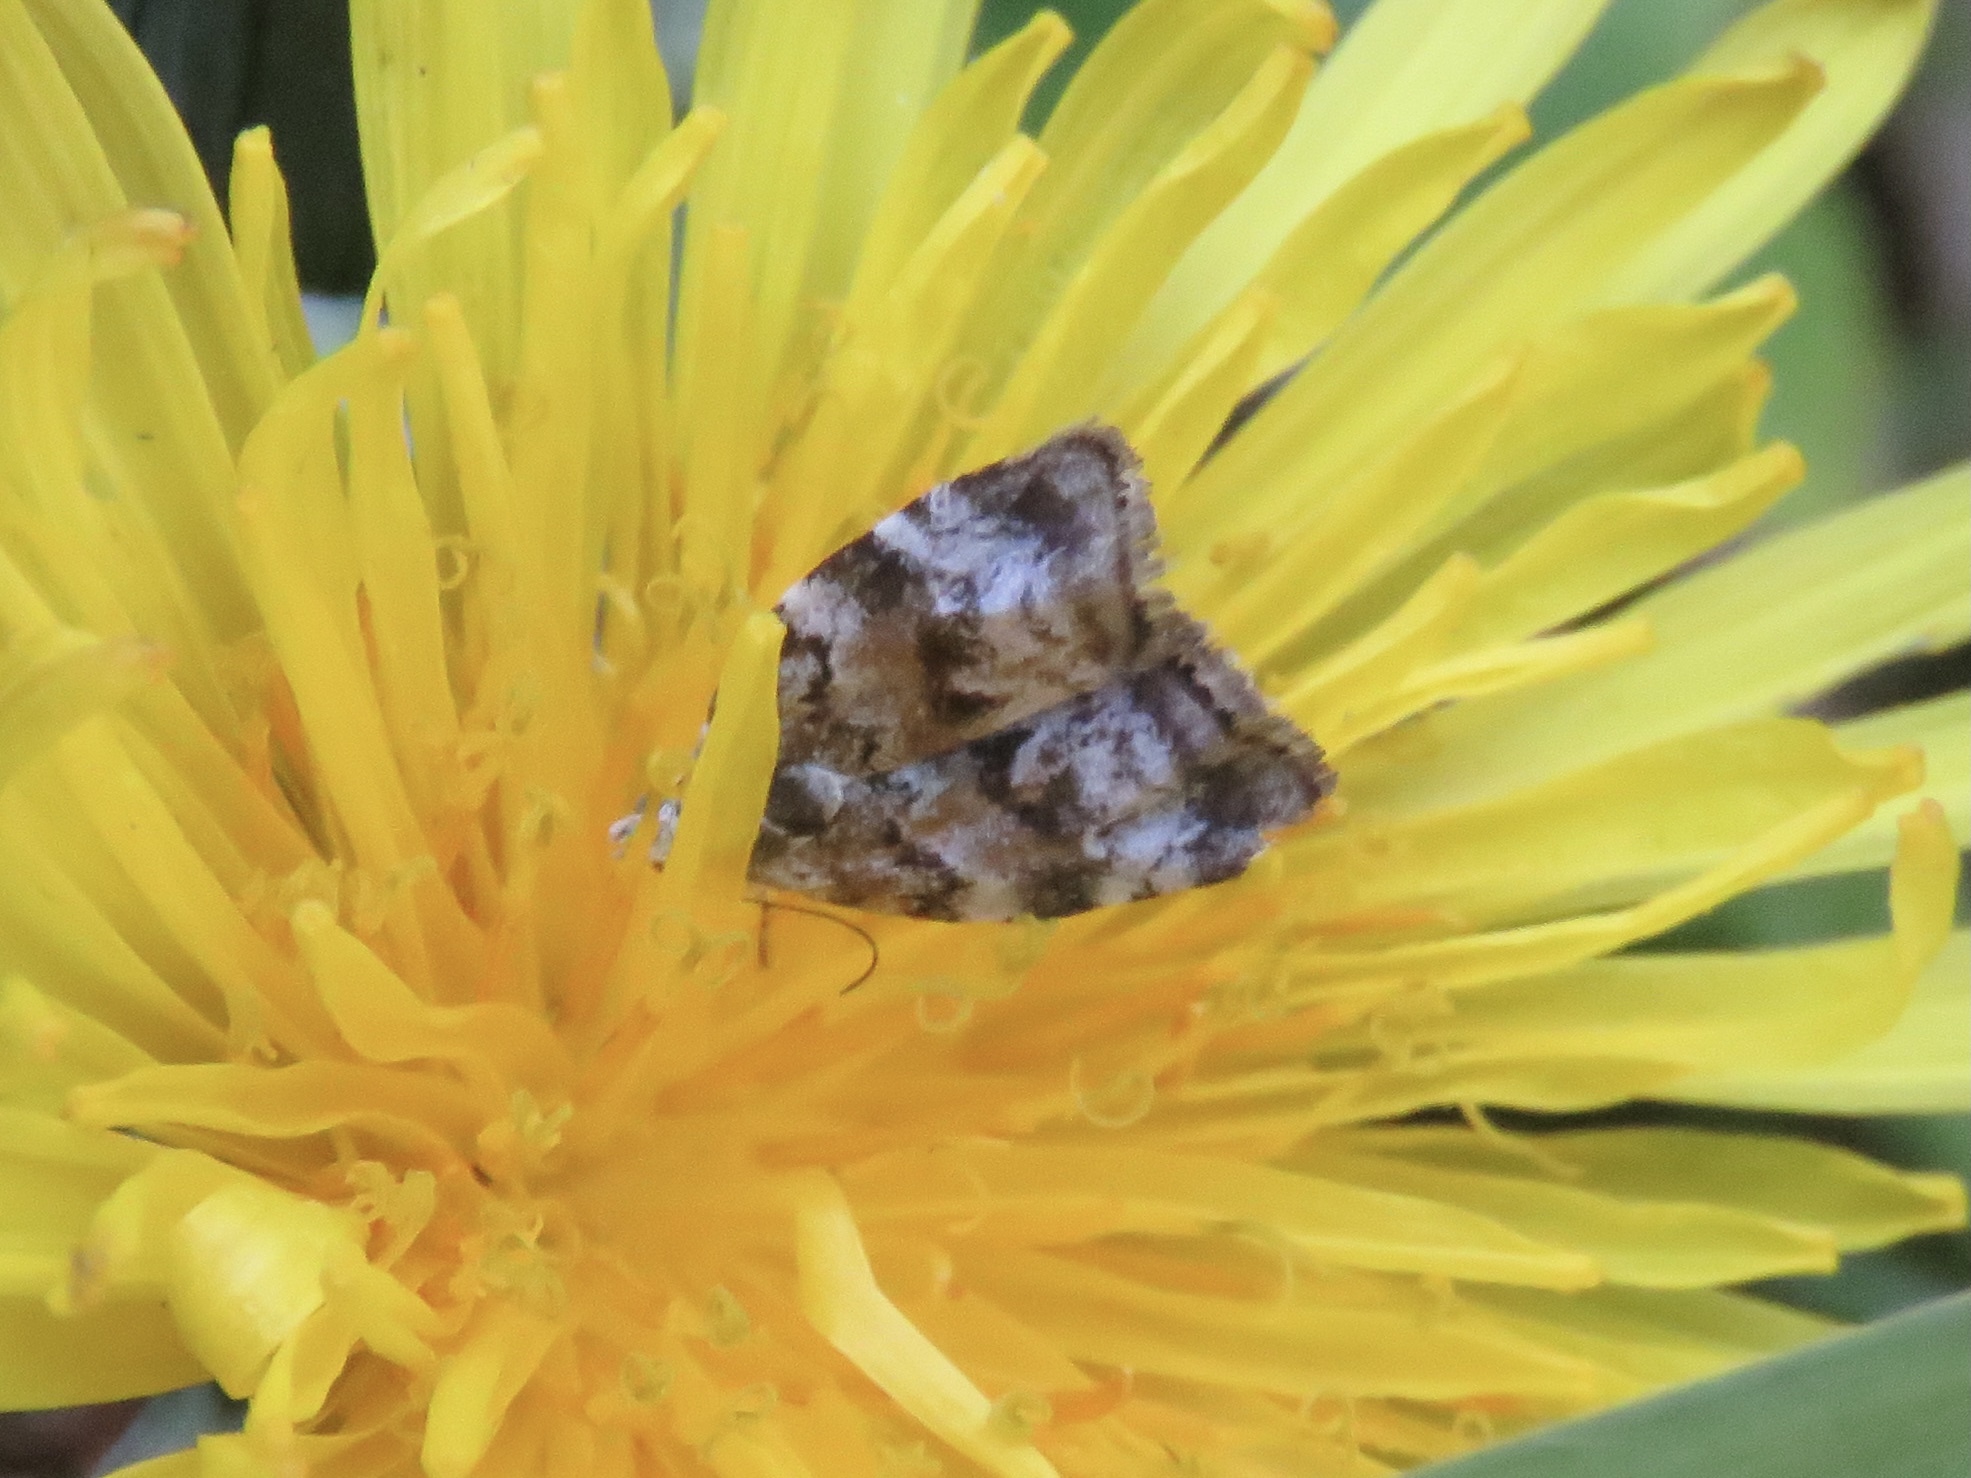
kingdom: Animalia
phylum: Arthropoda
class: Insecta
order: Lepidoptera
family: Choreutidae
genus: Choreutis
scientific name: Choreutis diana
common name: Inverness twitcher
